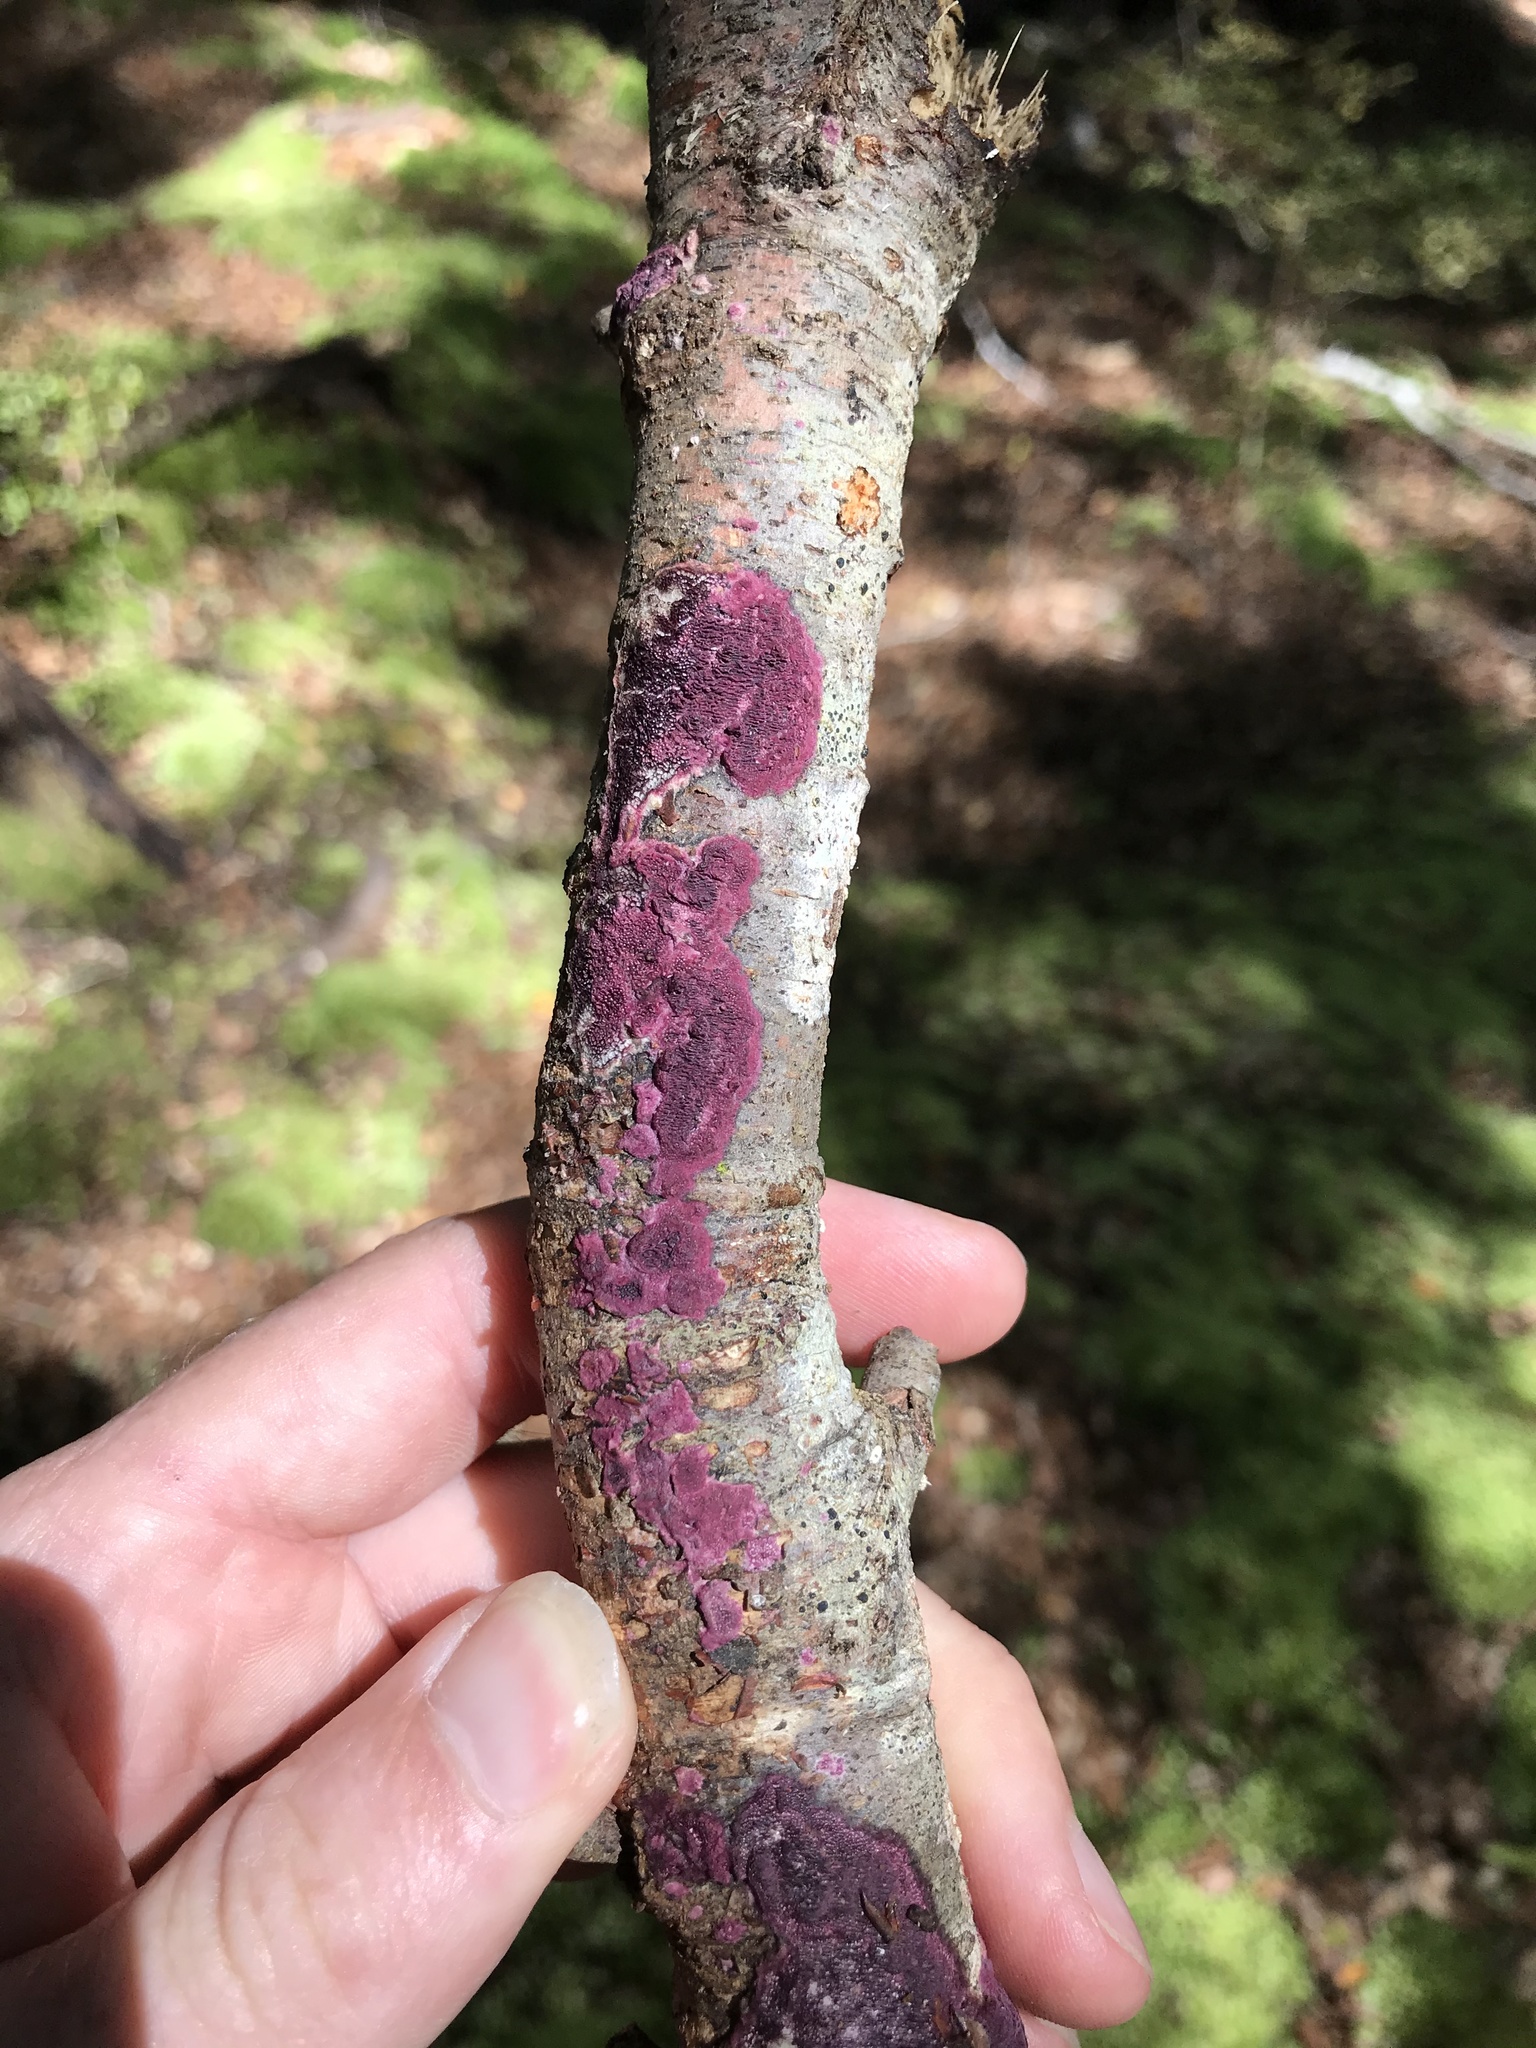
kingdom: Fungi
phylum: Basidiomycota
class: Agaricomycetes
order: Polyporales
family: Irpicaceae
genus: Byssomerulius
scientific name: Byssomerulius psittacinus
